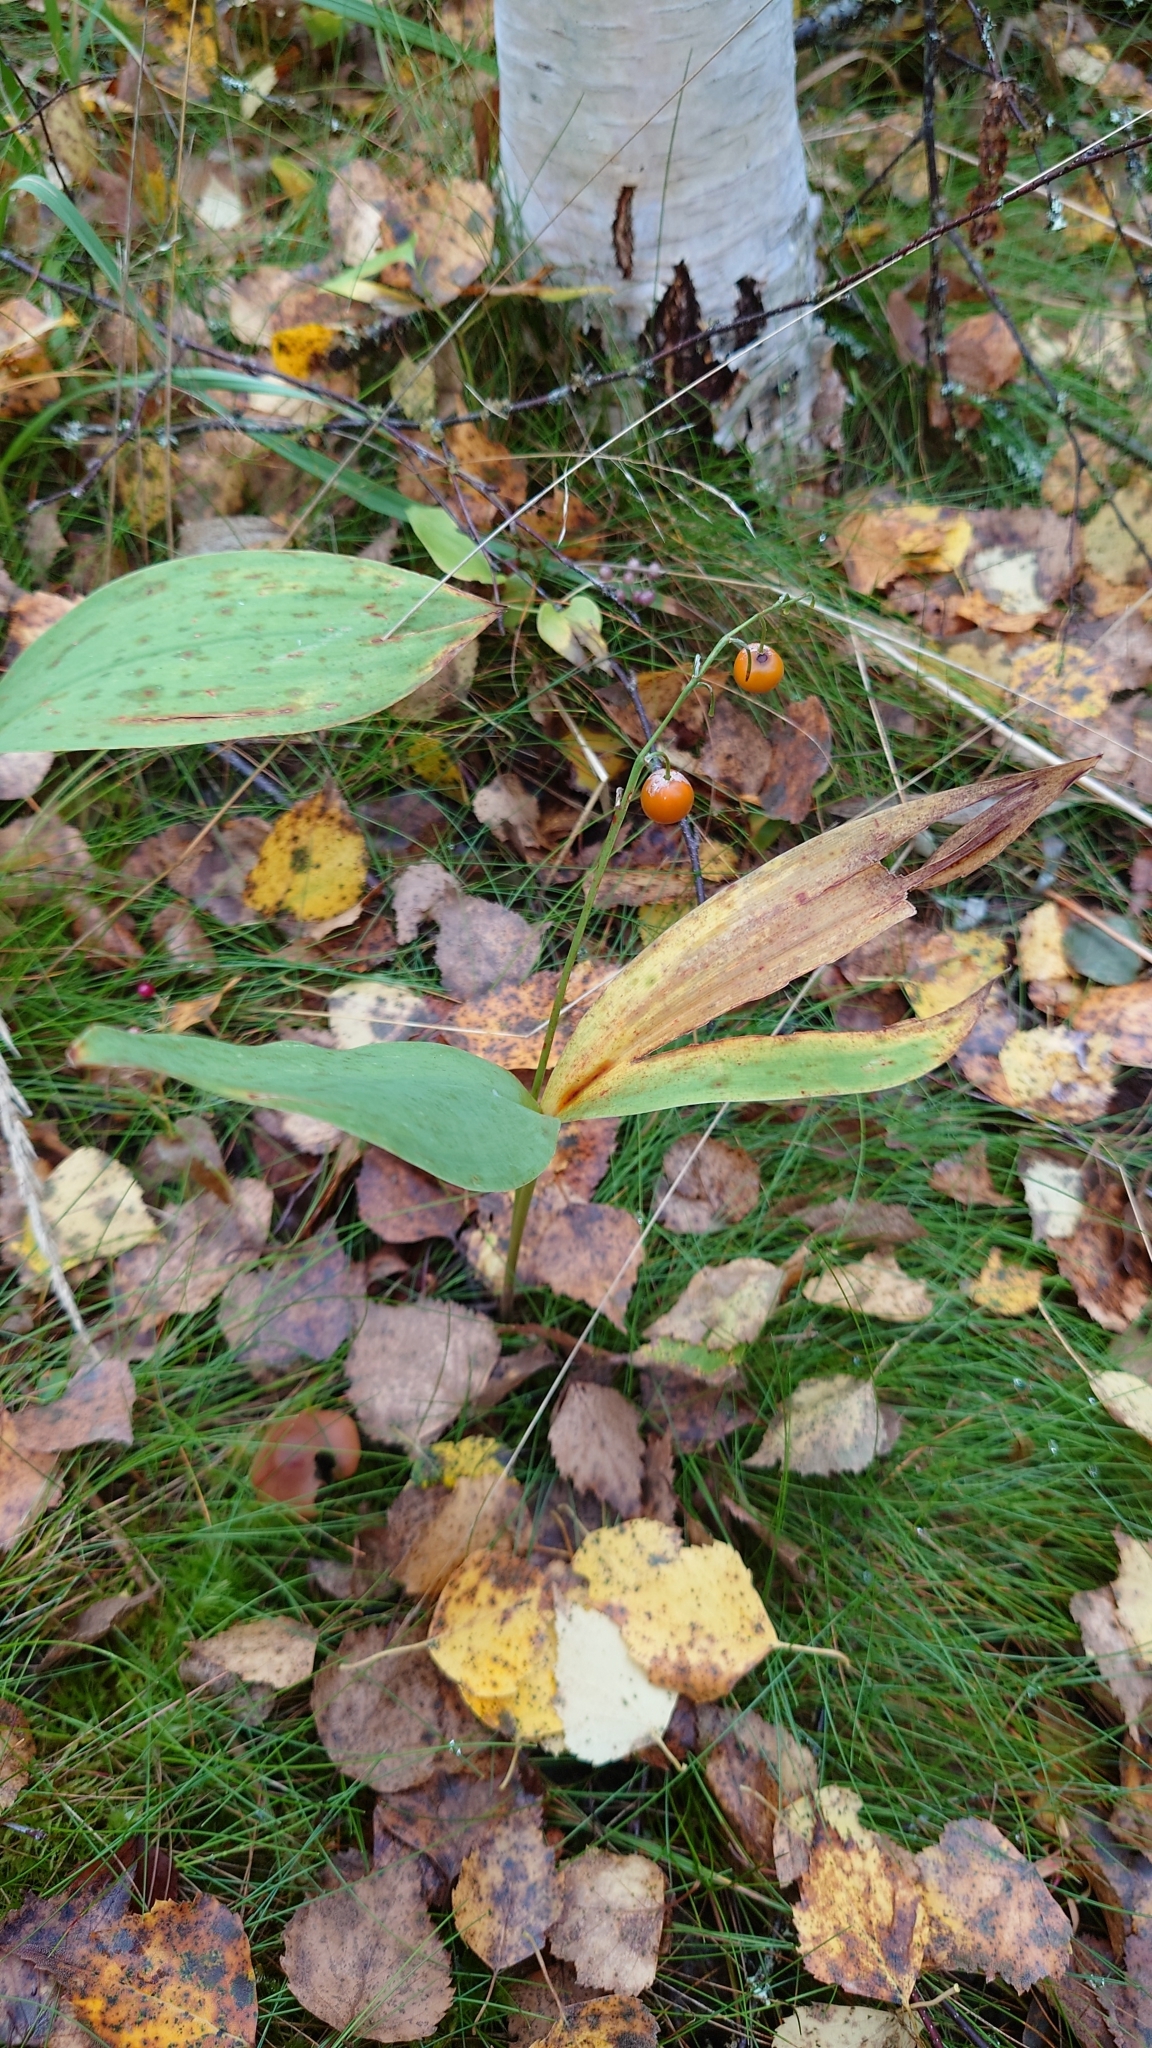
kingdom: Plantae
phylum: Tracheophyta
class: Liliopsida
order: Asparagales
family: Asparagaceae
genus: Convallaria
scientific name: Convallaria majalis
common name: Lily-of-the-valley
